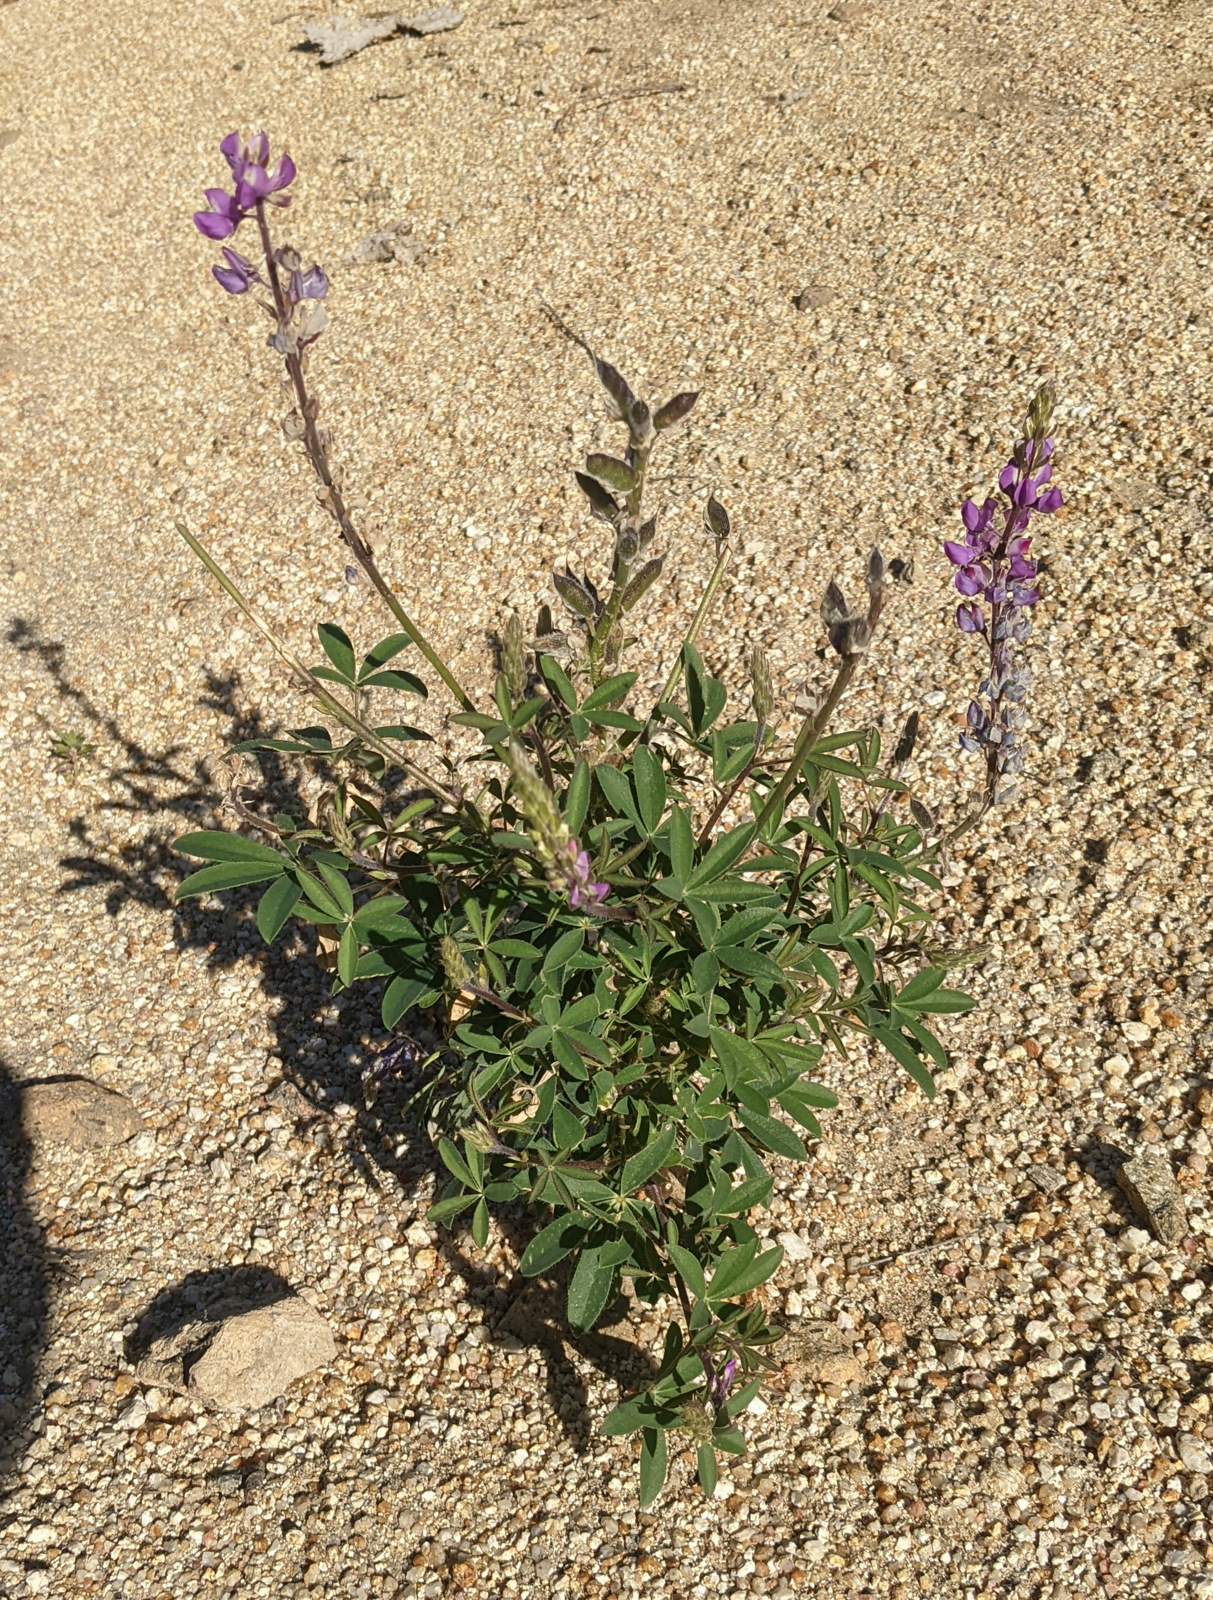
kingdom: Plantae
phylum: Tracheophyta
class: Magnoliopsida
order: Fabales
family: Fabaceae
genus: Lupinus
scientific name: Lupinus arizonicus
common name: Arizona lupine
